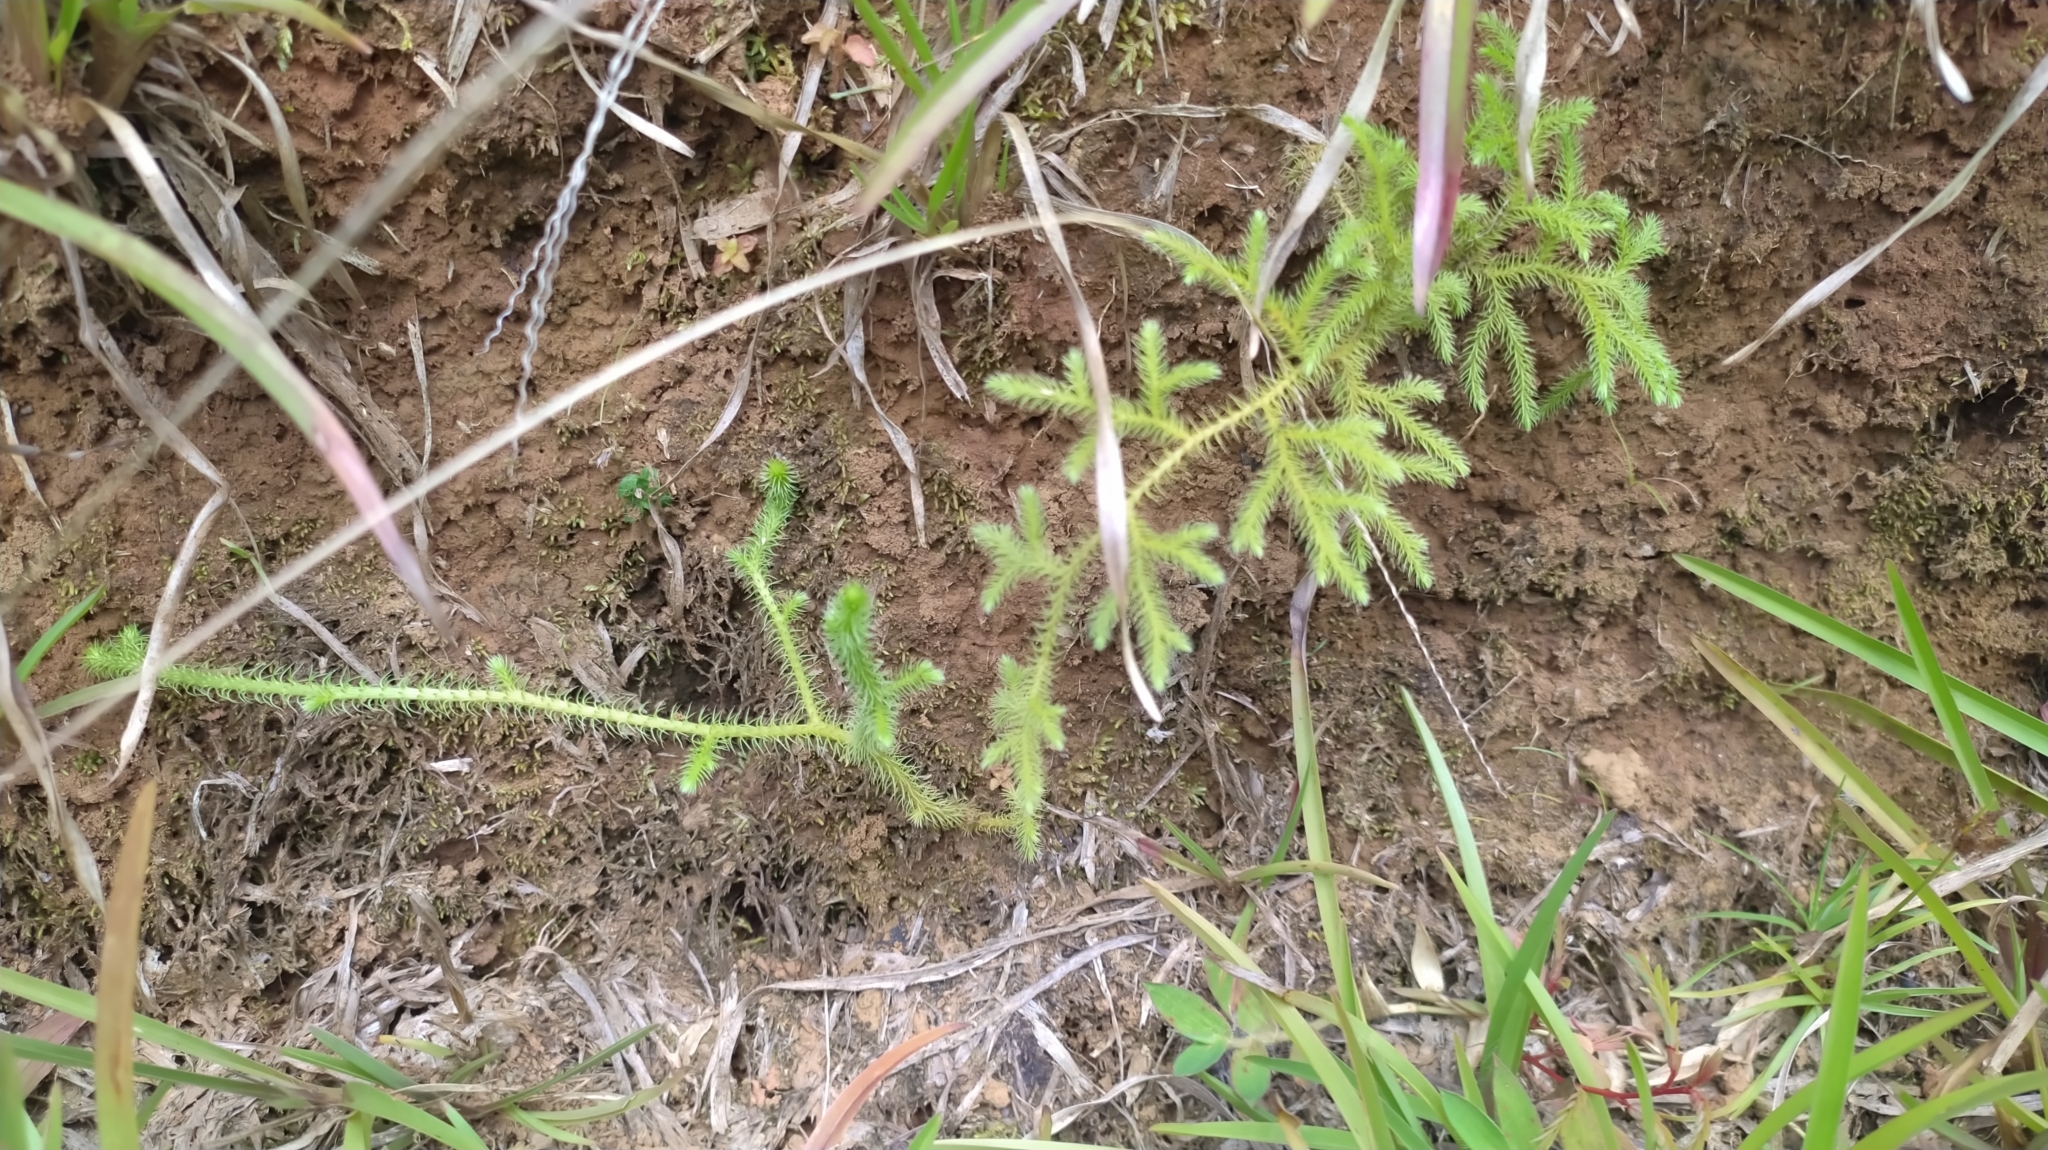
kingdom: Plantae
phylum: Tracheophyta
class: Lycopodiopsida
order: Lycopodiales
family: Lycopodiaceae
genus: Palhinhaea
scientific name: Palhinhaea cernua
